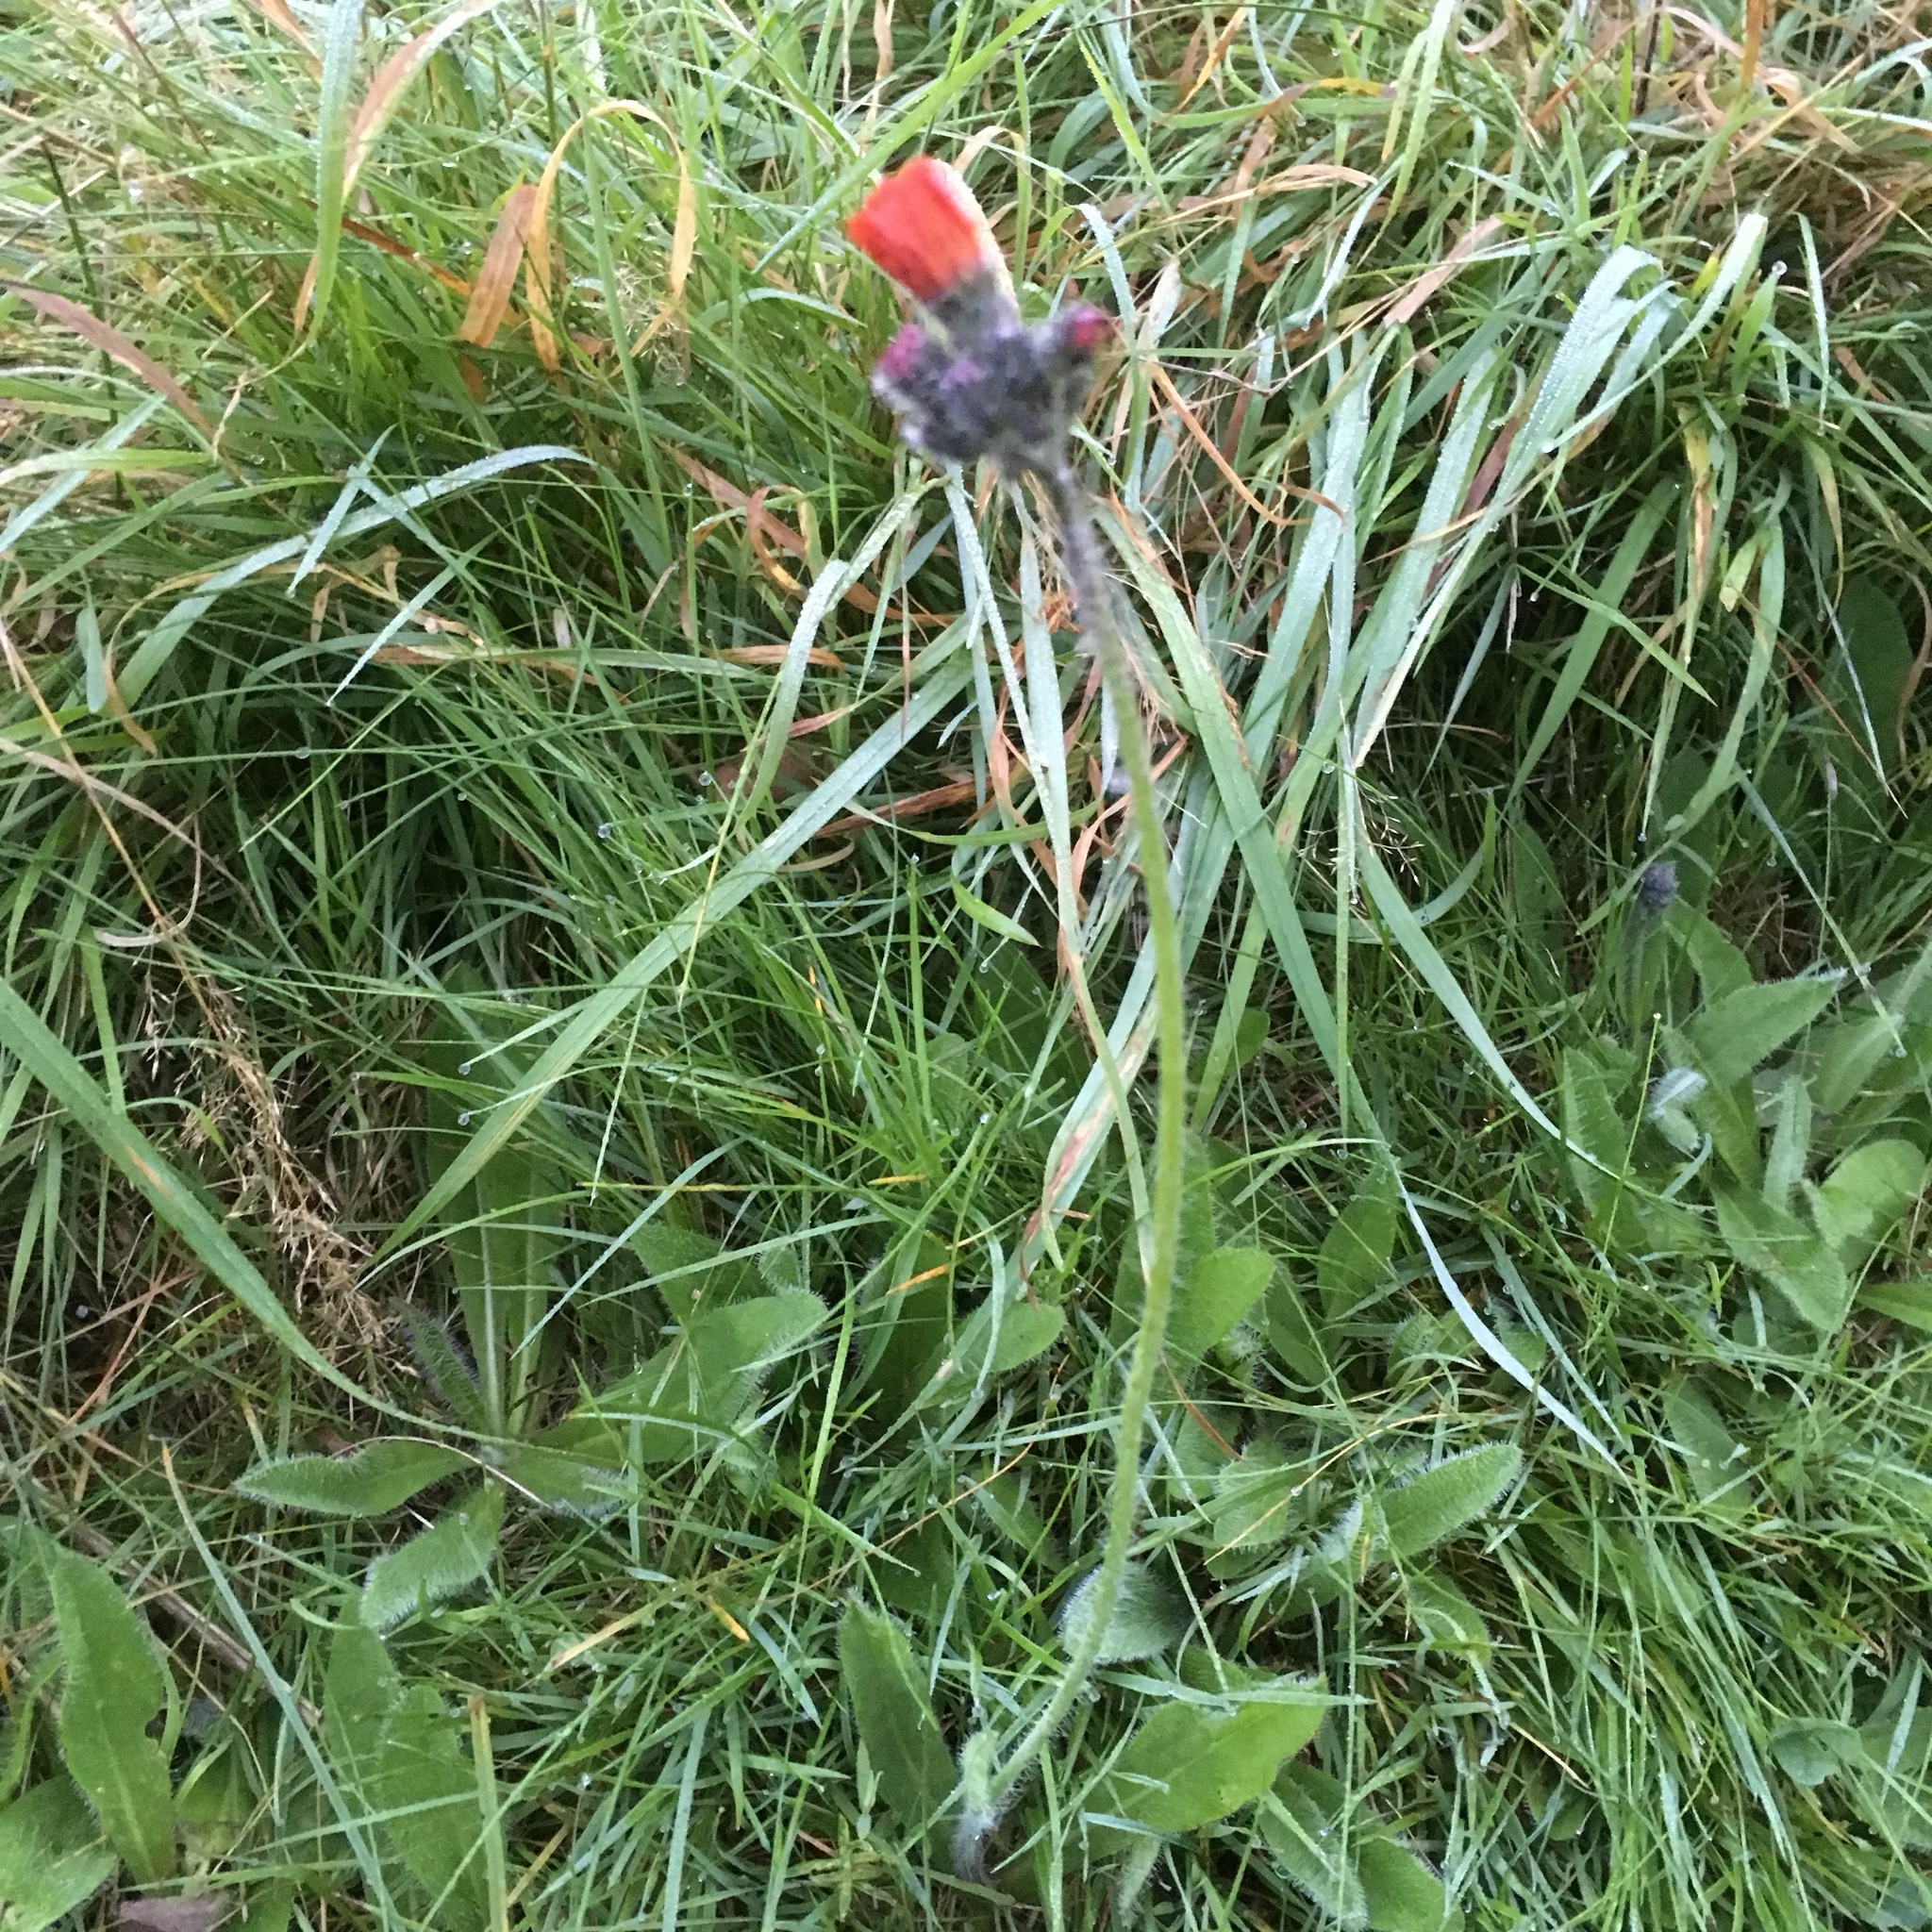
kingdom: Plantae
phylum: Tracheophyta
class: Magnoliopsida
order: Asterales
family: Asteraceae
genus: Pilosella
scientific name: Pilosella aurantiaca
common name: Fox-and-cubs
